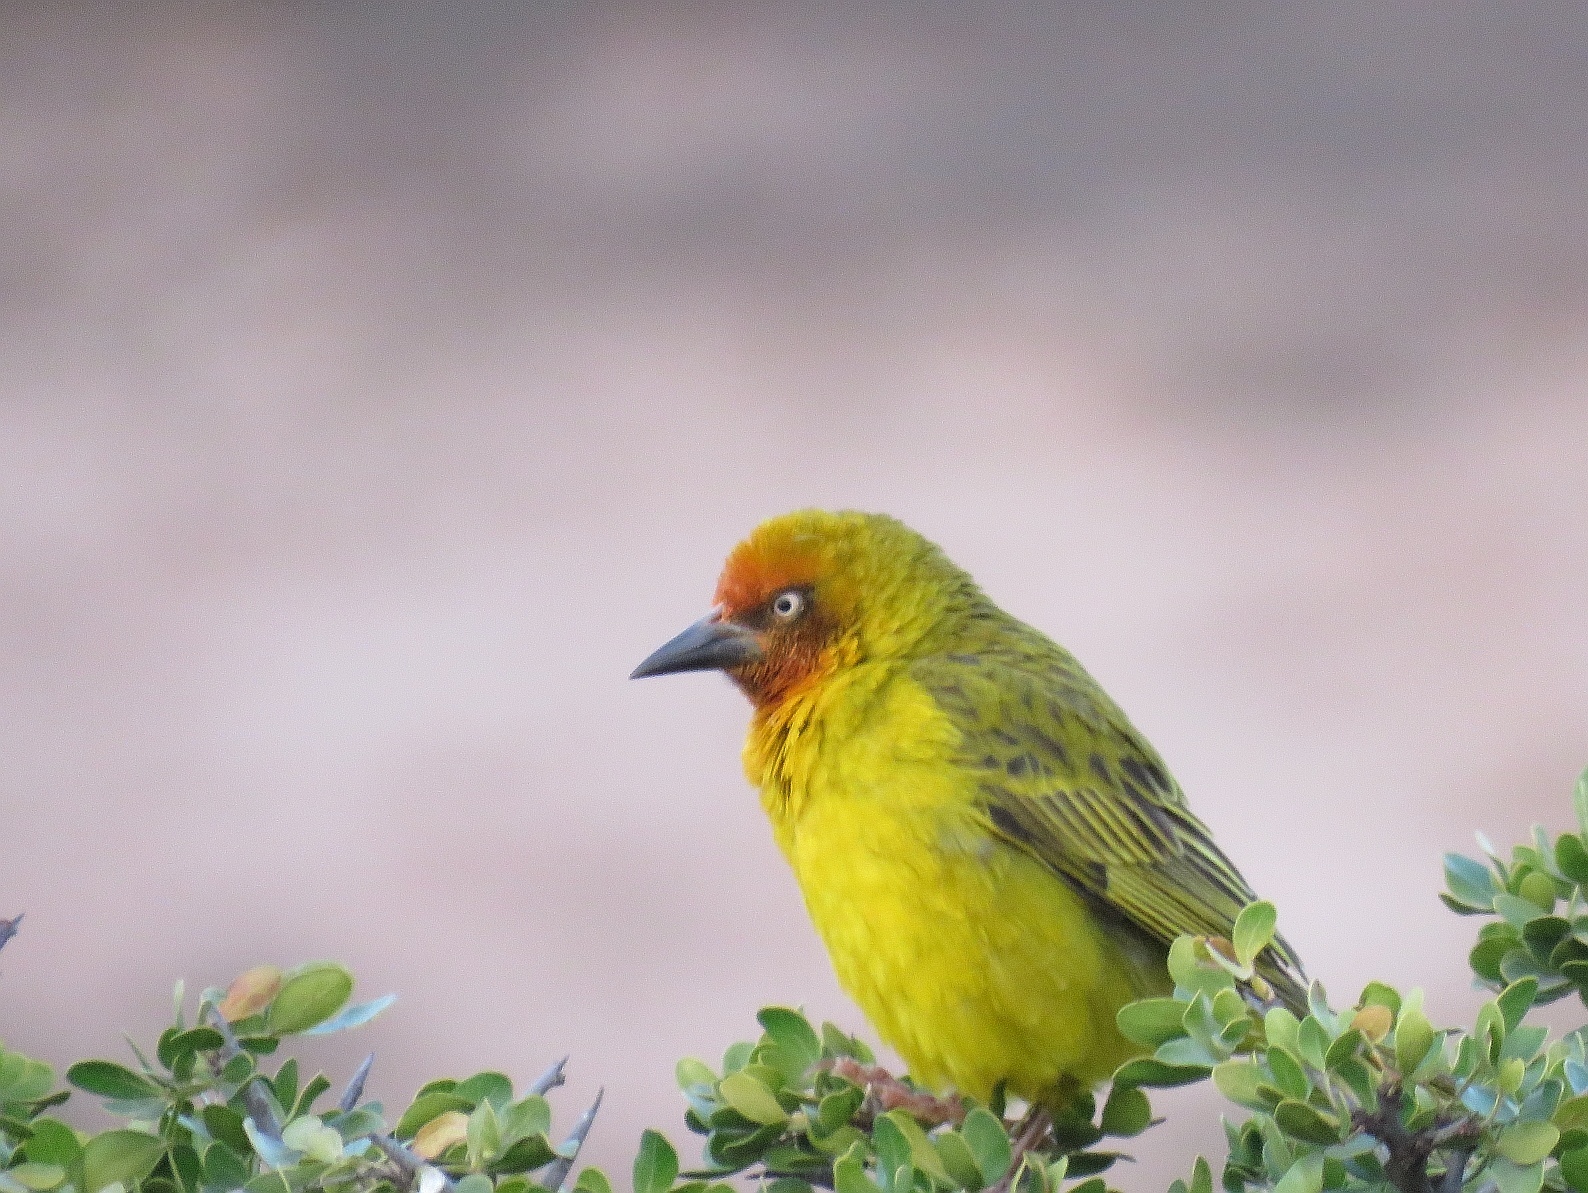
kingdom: Animalia
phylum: Chordata
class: Aves
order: Passeriformes
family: Ploceidae
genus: Ploceus
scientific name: Ploceus capensis
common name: Cape weaver
